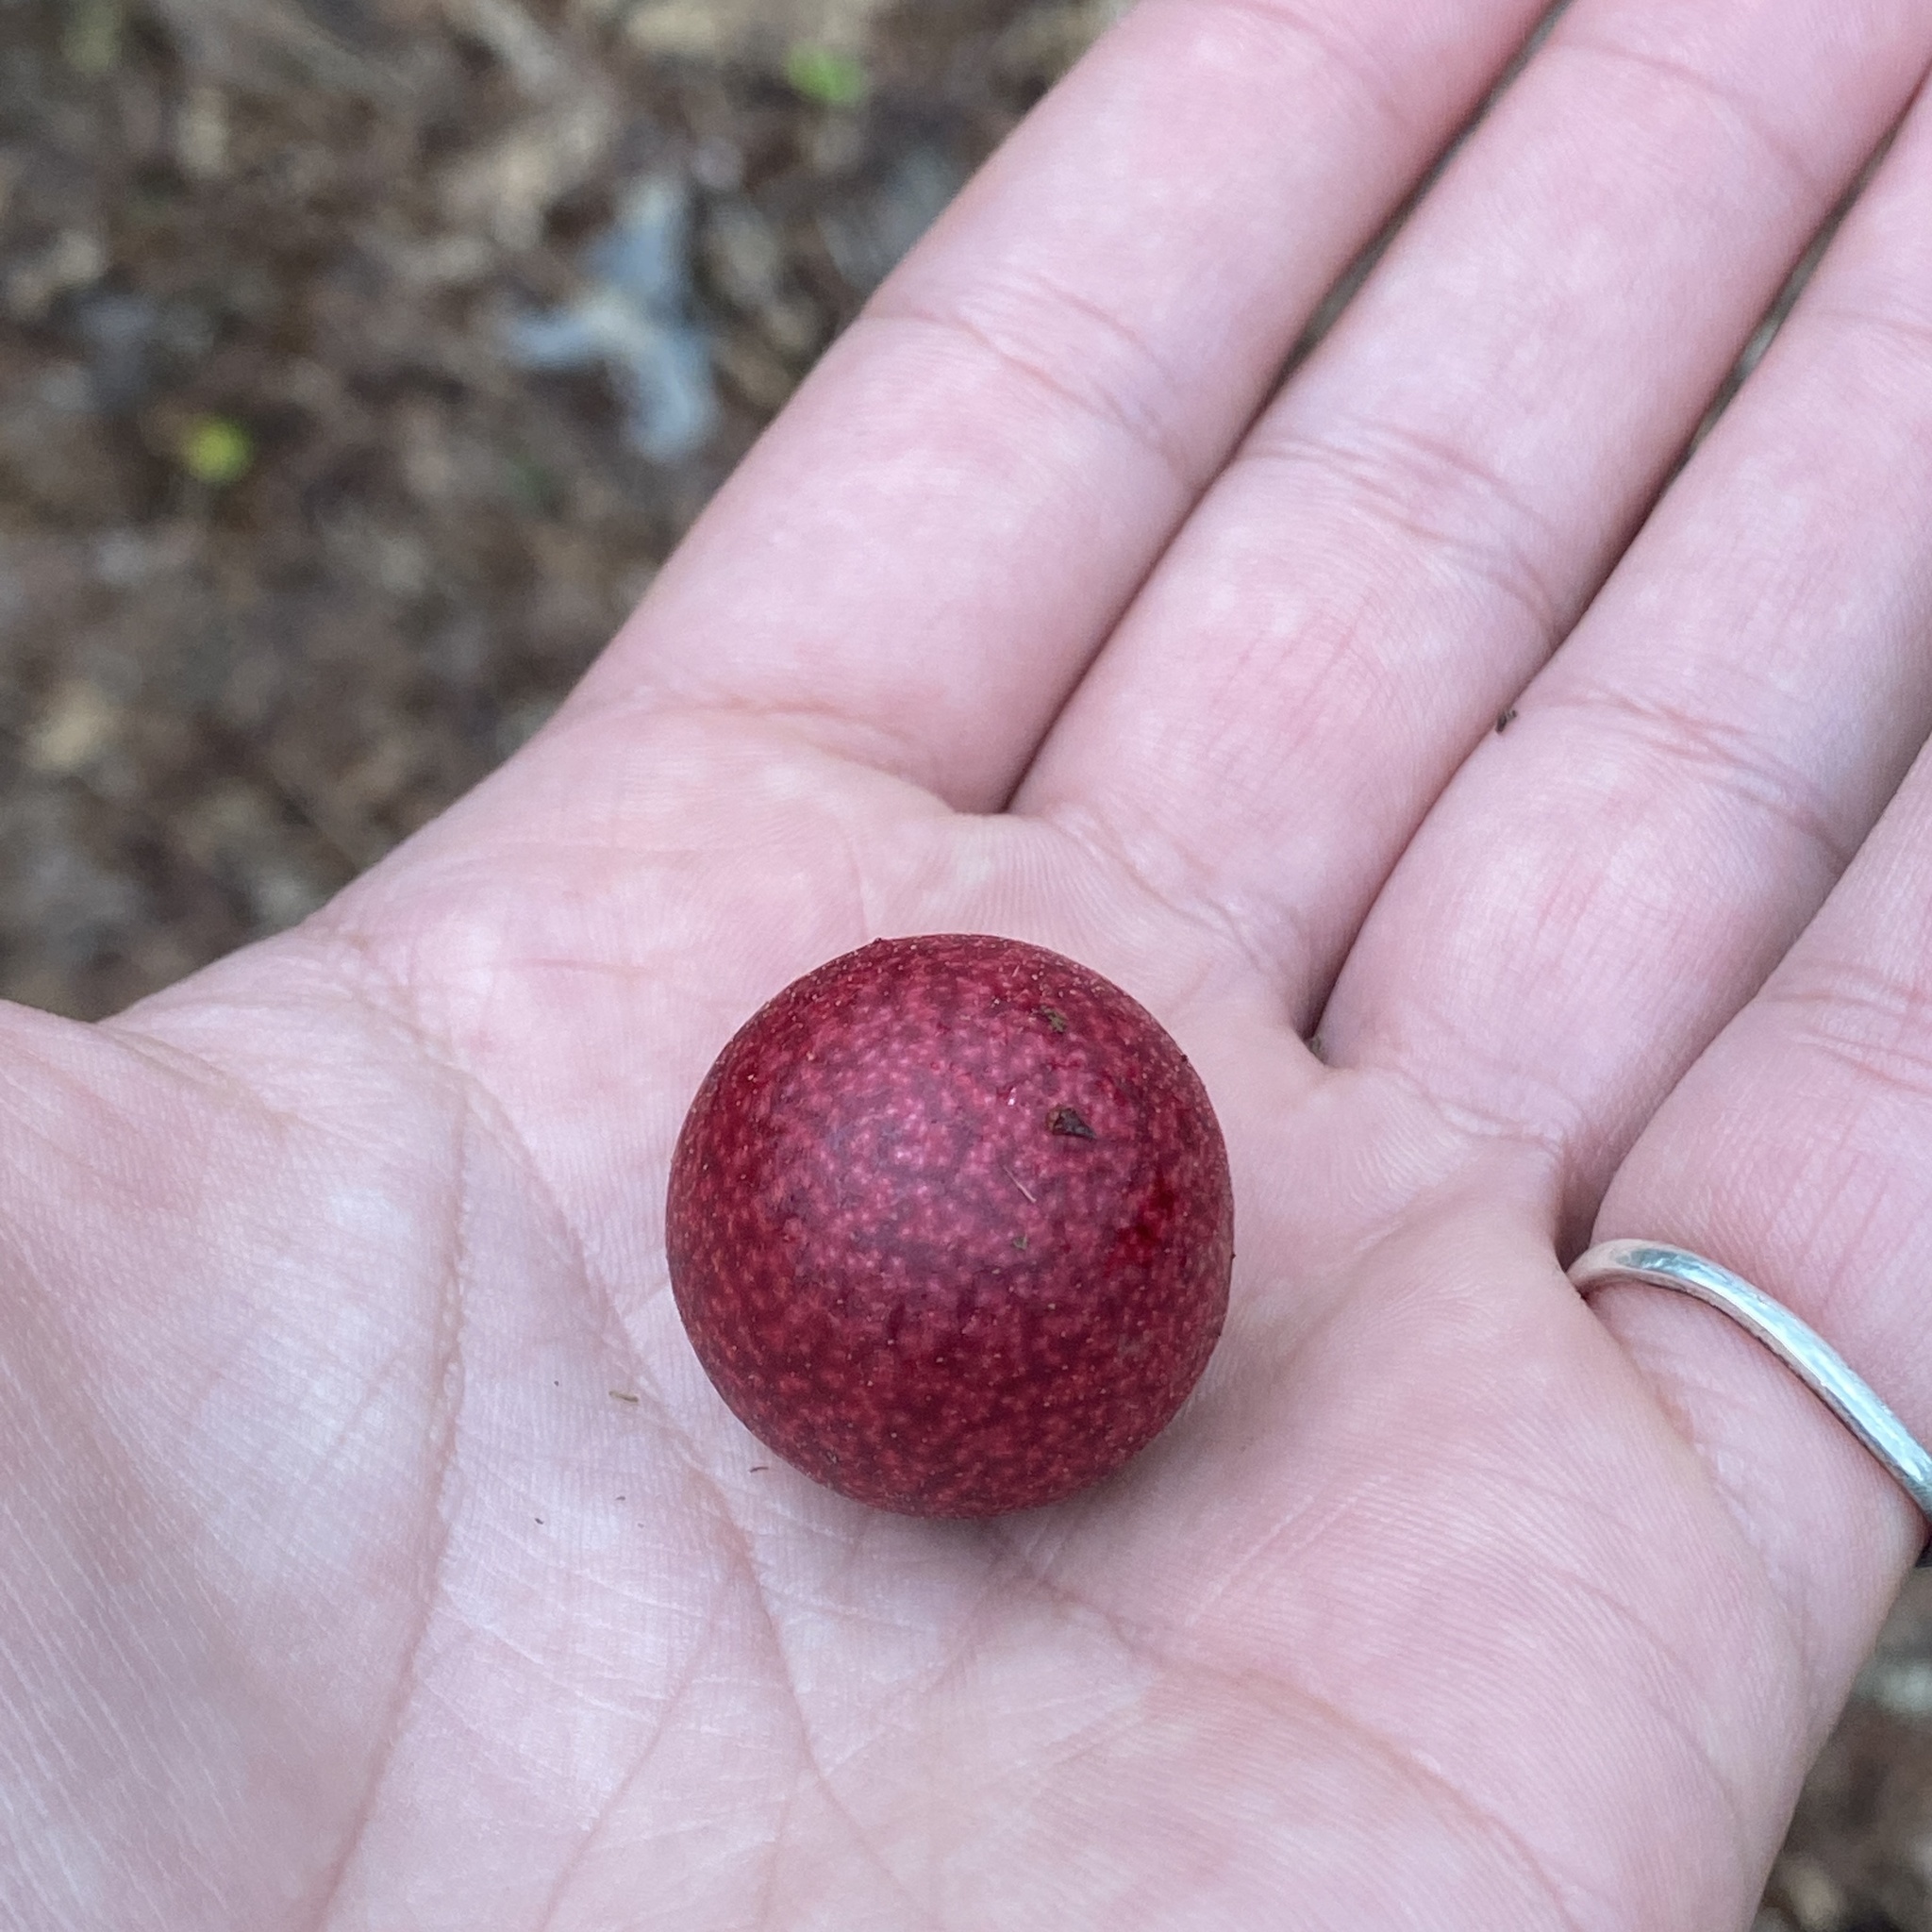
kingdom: Animalia
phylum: Arthropoda
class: Insecta
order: Hymenoptera
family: Cynipidae
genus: Amphibolips
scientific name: Amphibolips
